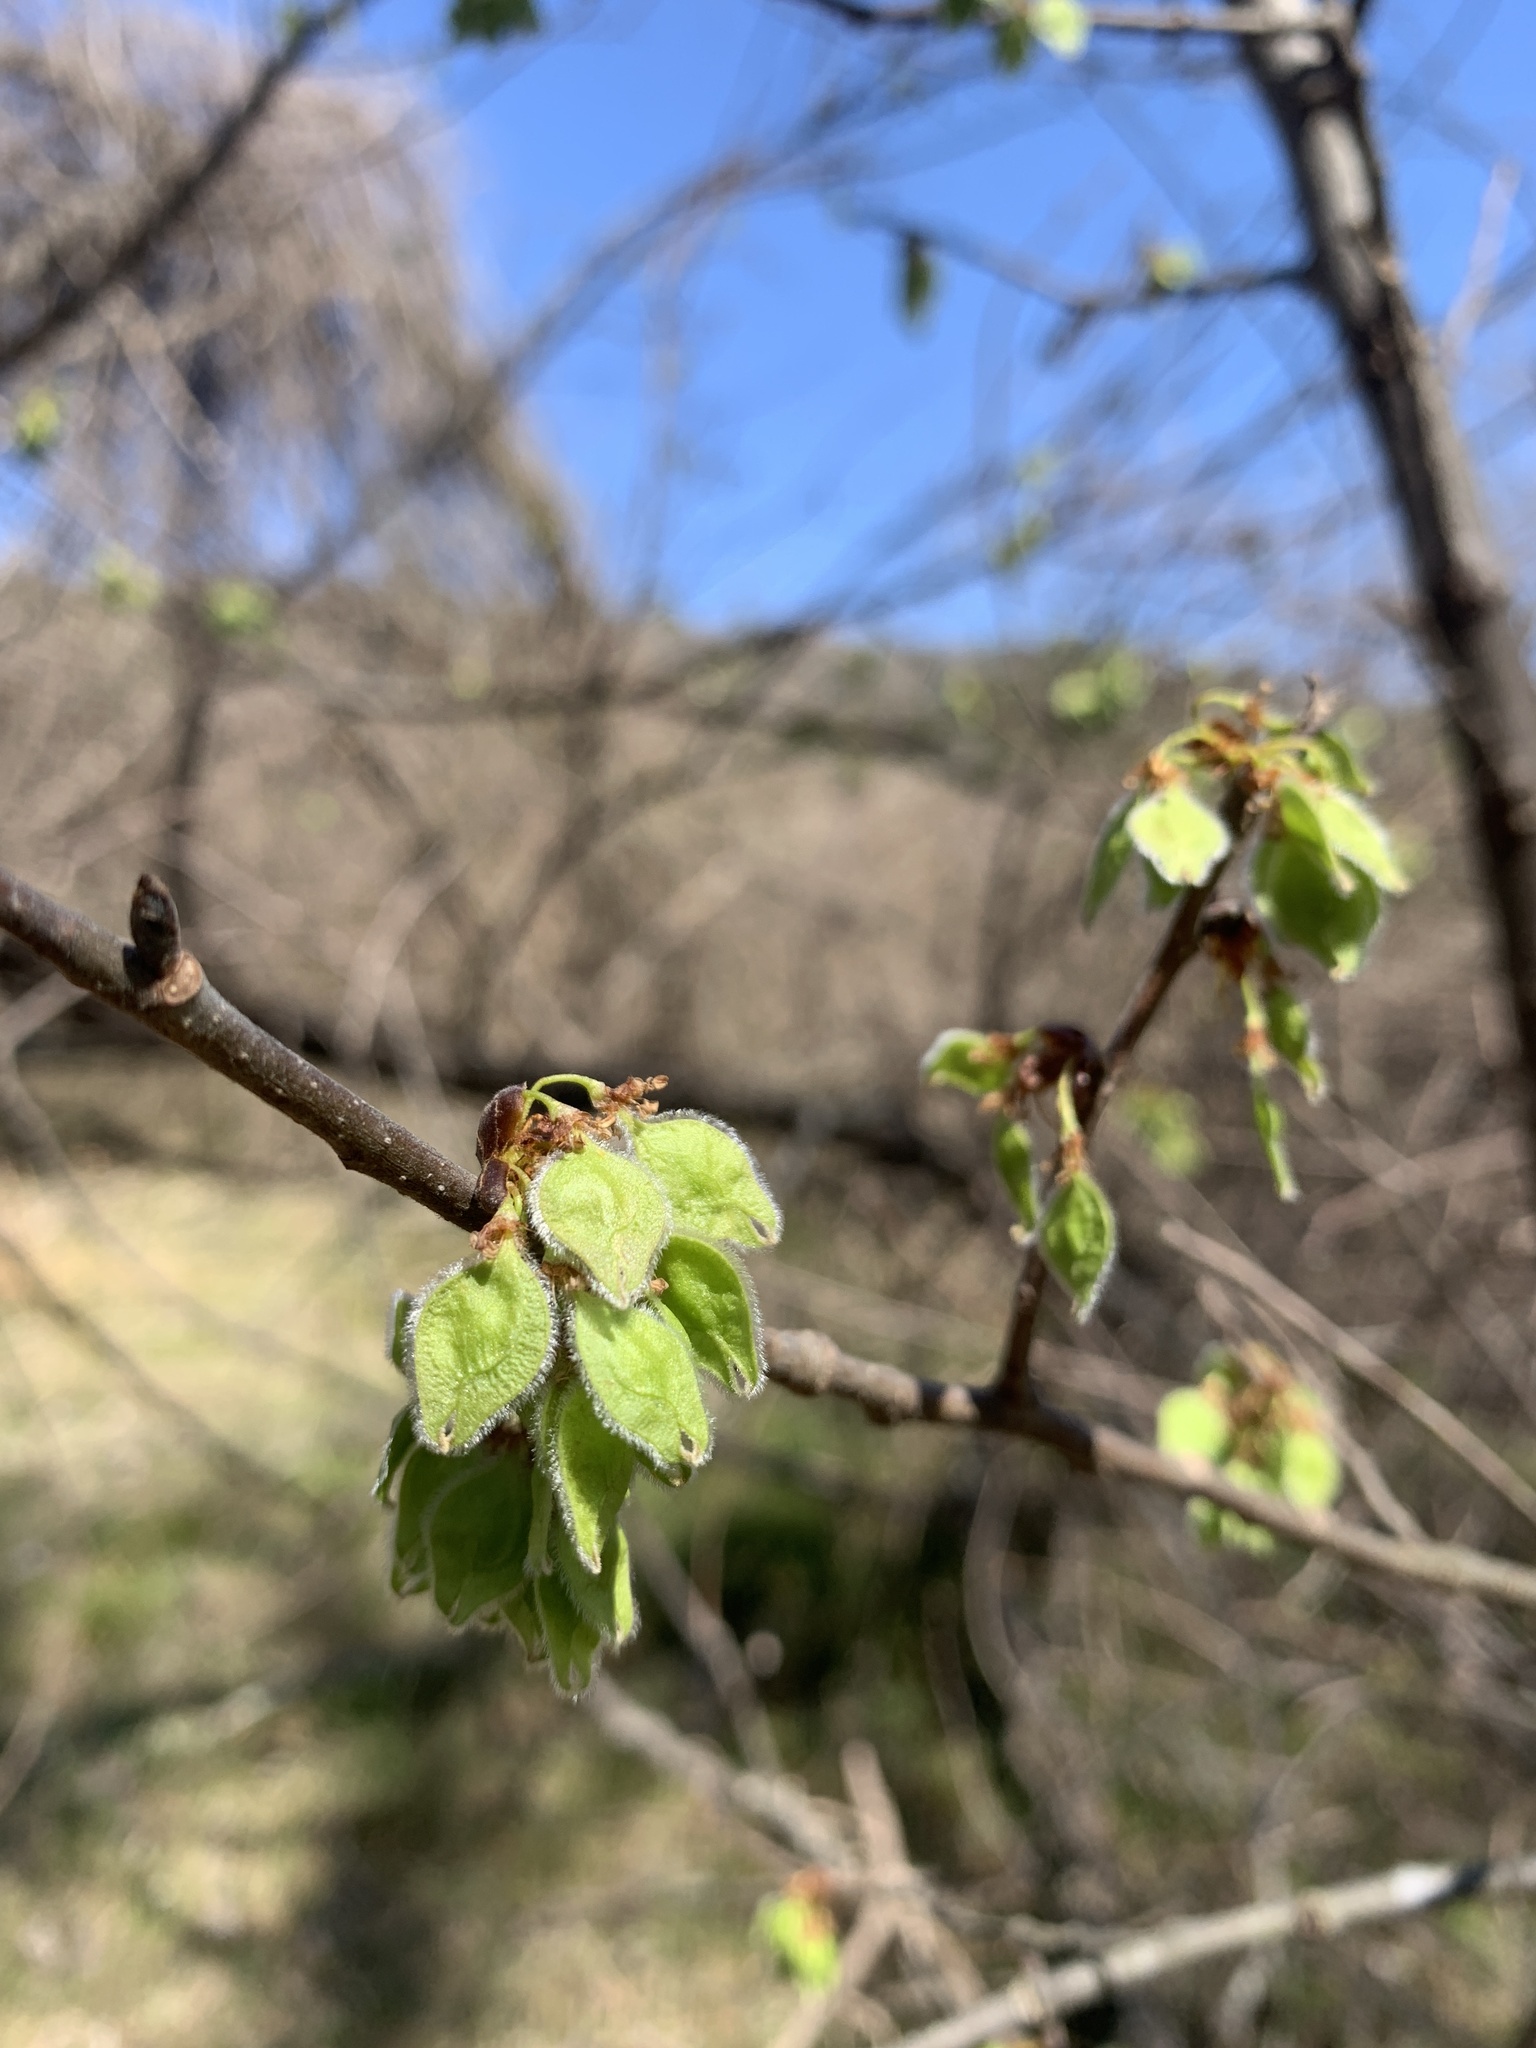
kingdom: Plantae
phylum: Tracheophyta
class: Magnoliopsida
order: Rosales
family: Ulmaceae
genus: Ulmus
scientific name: Ulmus americana
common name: American elm
